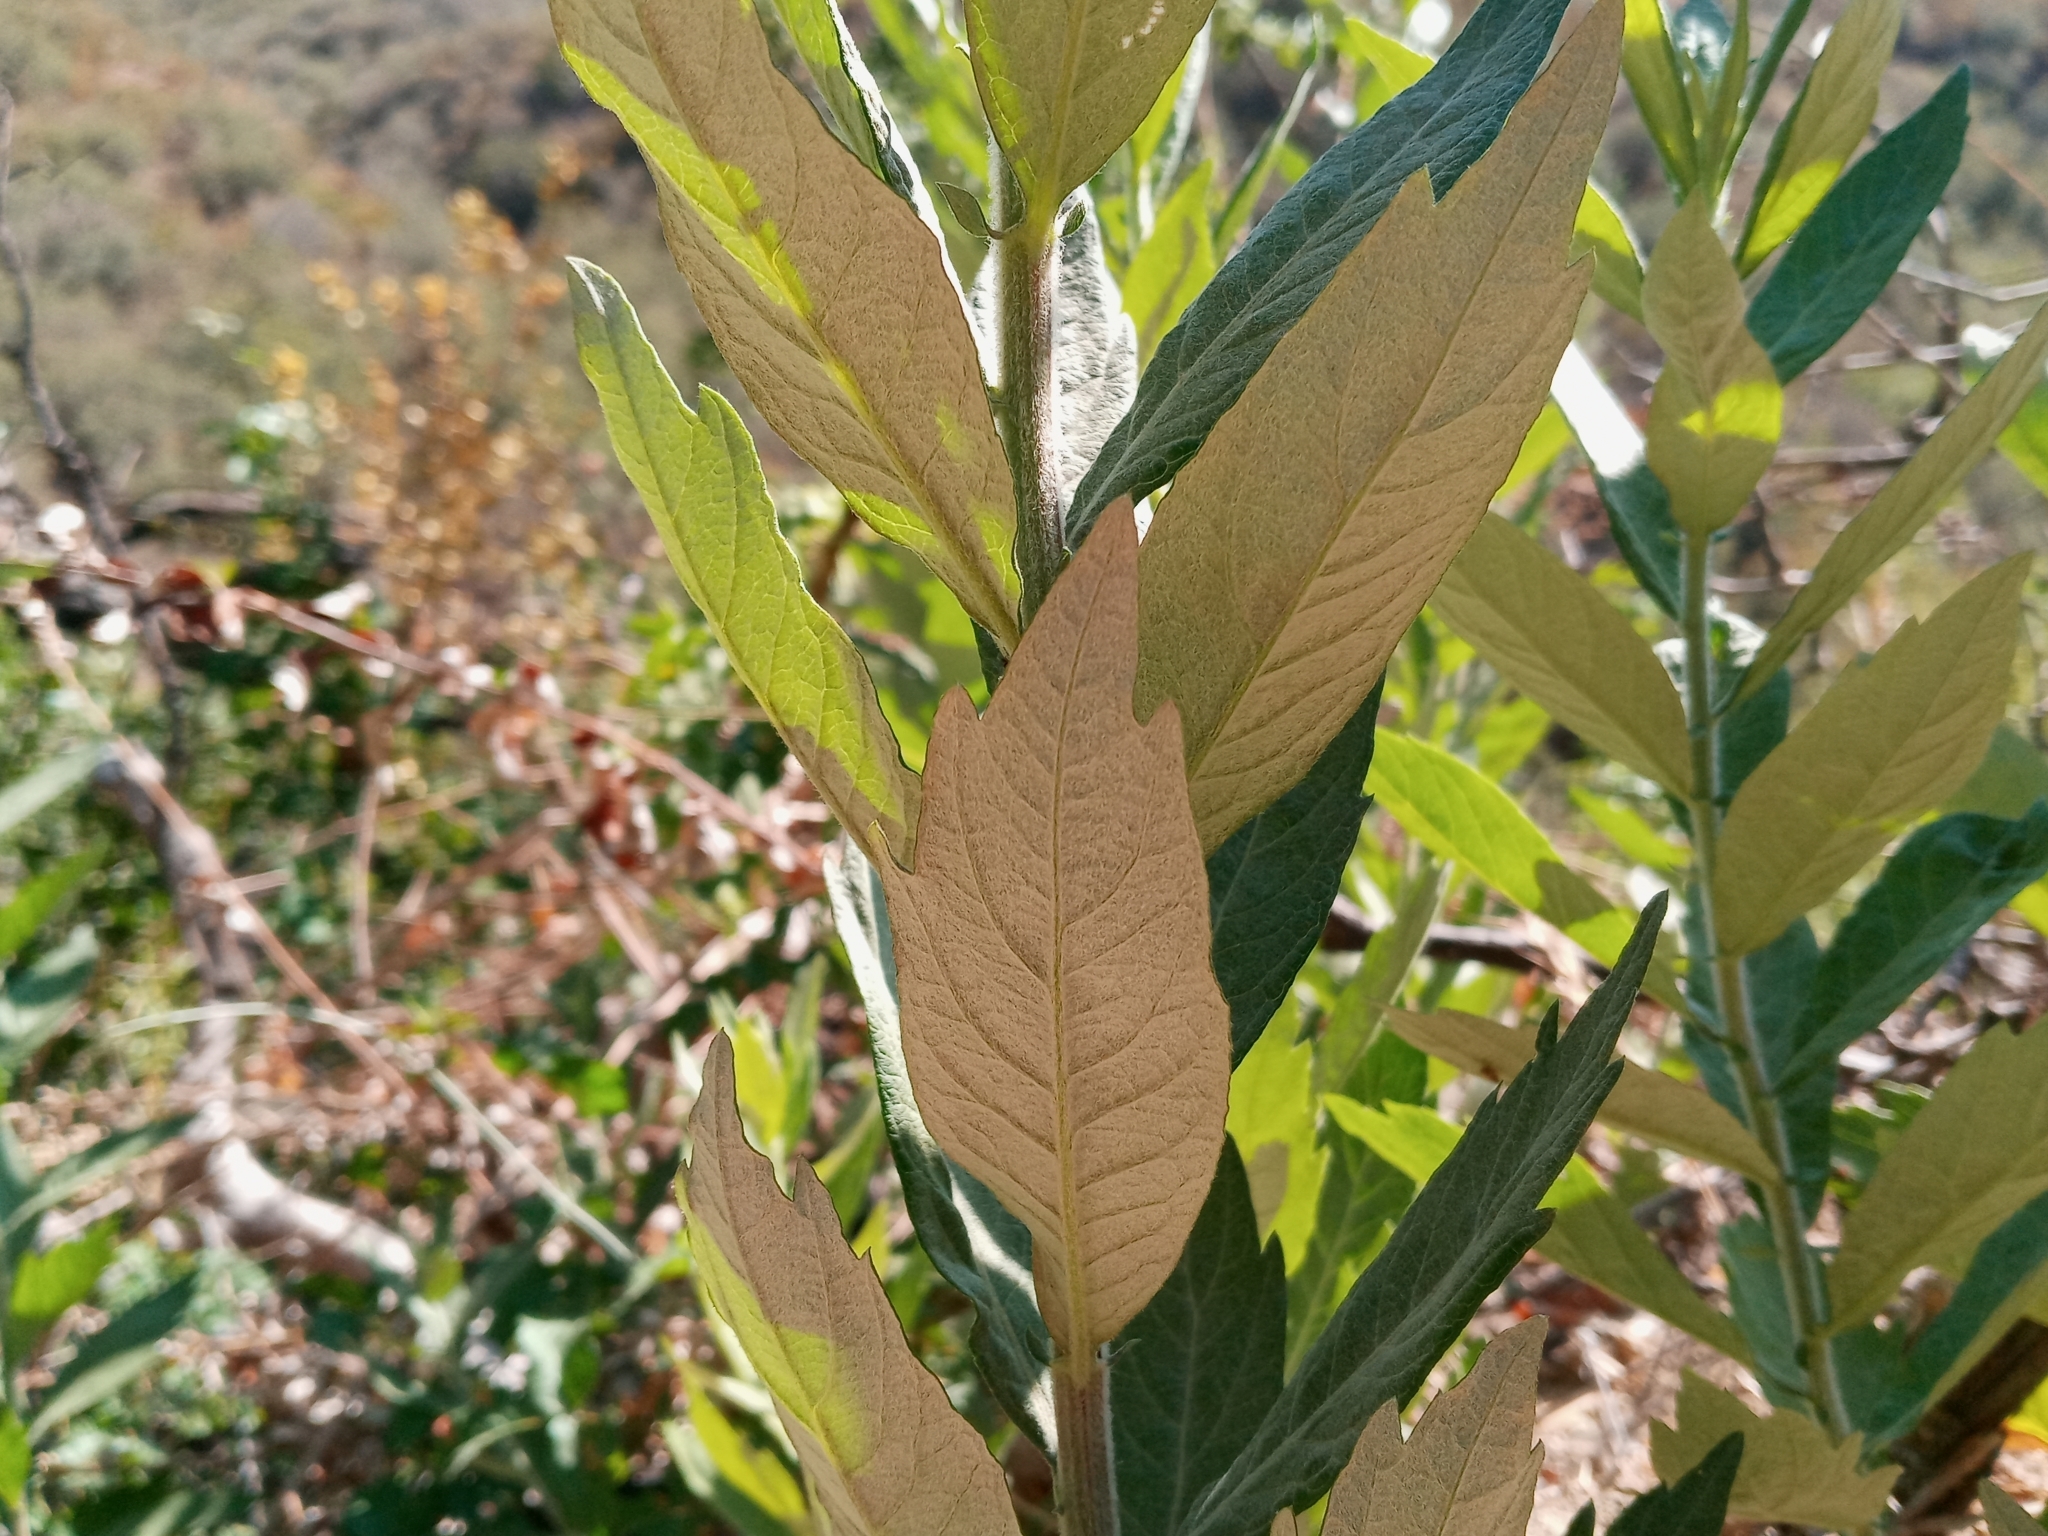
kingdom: Plantae
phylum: Tracheophyta
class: Magnoliopsida
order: Asterales
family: Asteraceae
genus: Artemisia
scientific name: Artemisia douglasiana
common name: Northwest mugwort
